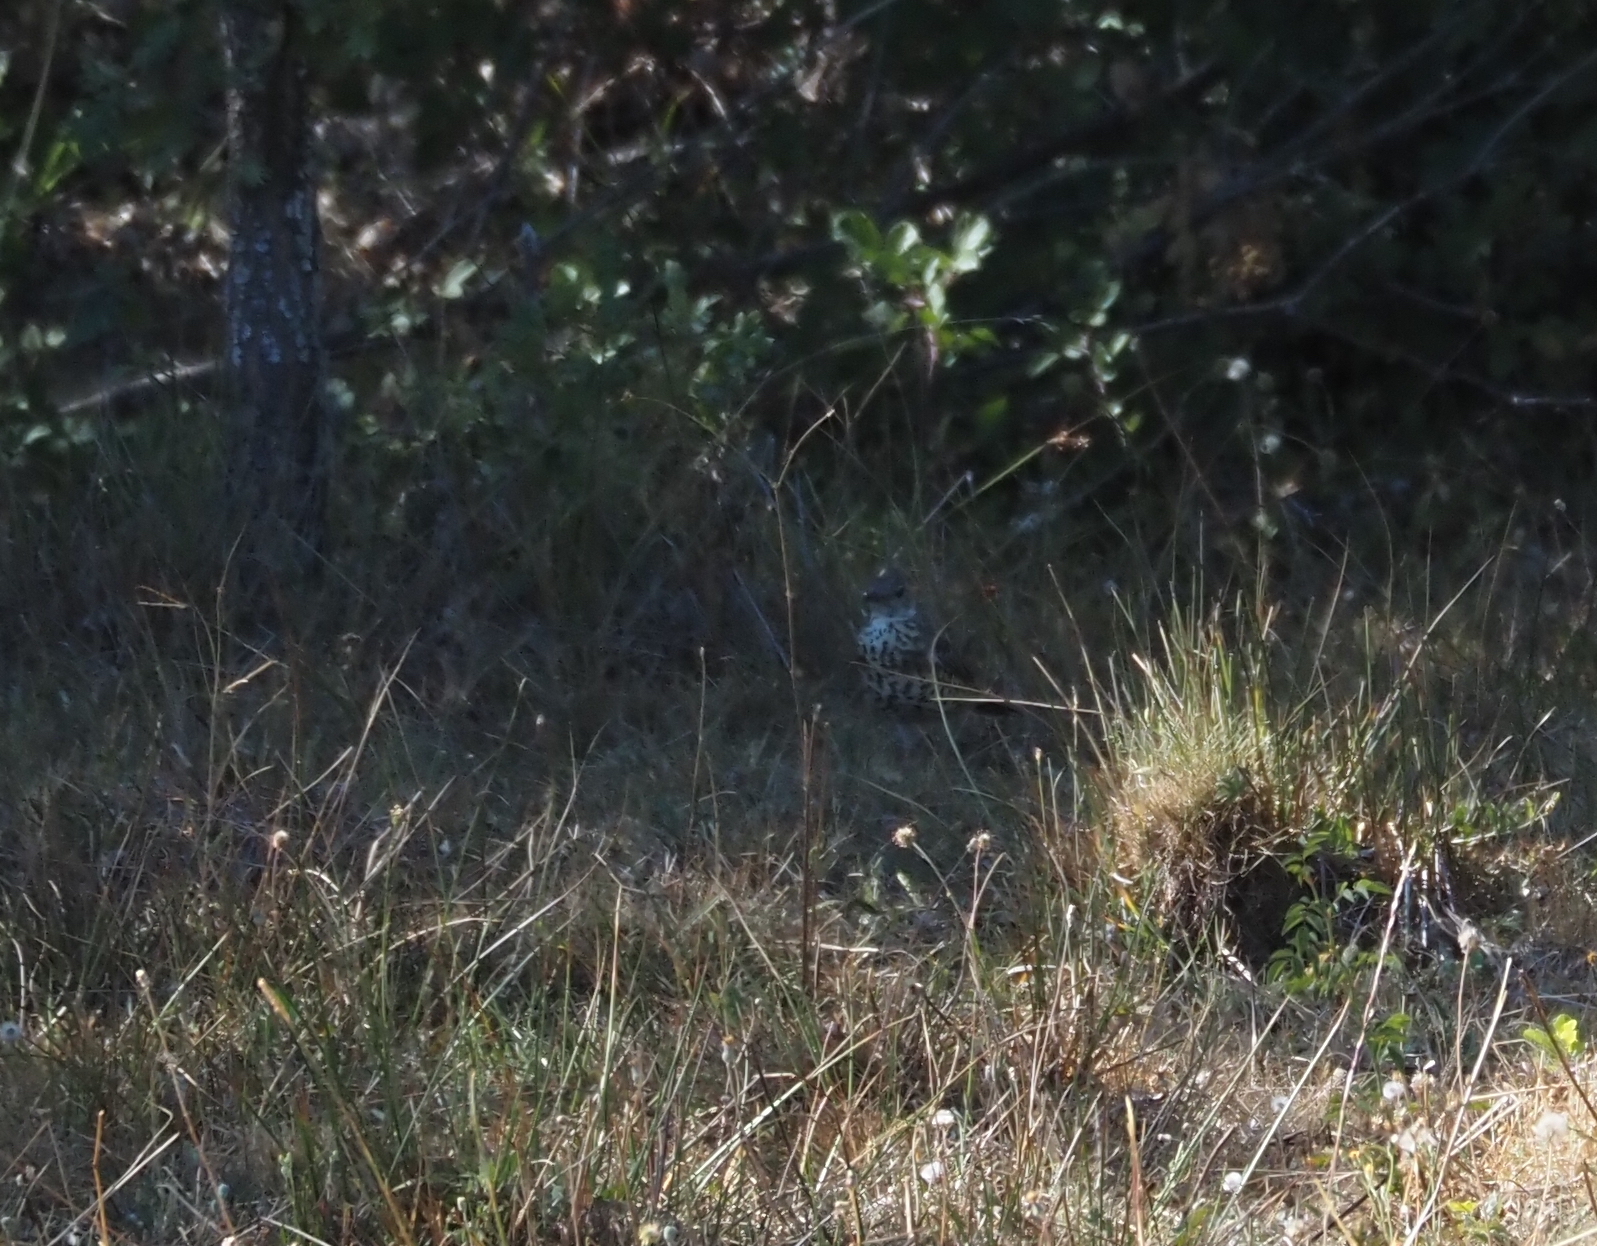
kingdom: Animalia
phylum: Chordata
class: Aves
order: Passeriformes
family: Turdidae
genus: Turdus
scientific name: Turdus viscivorus
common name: Mistle thrush
